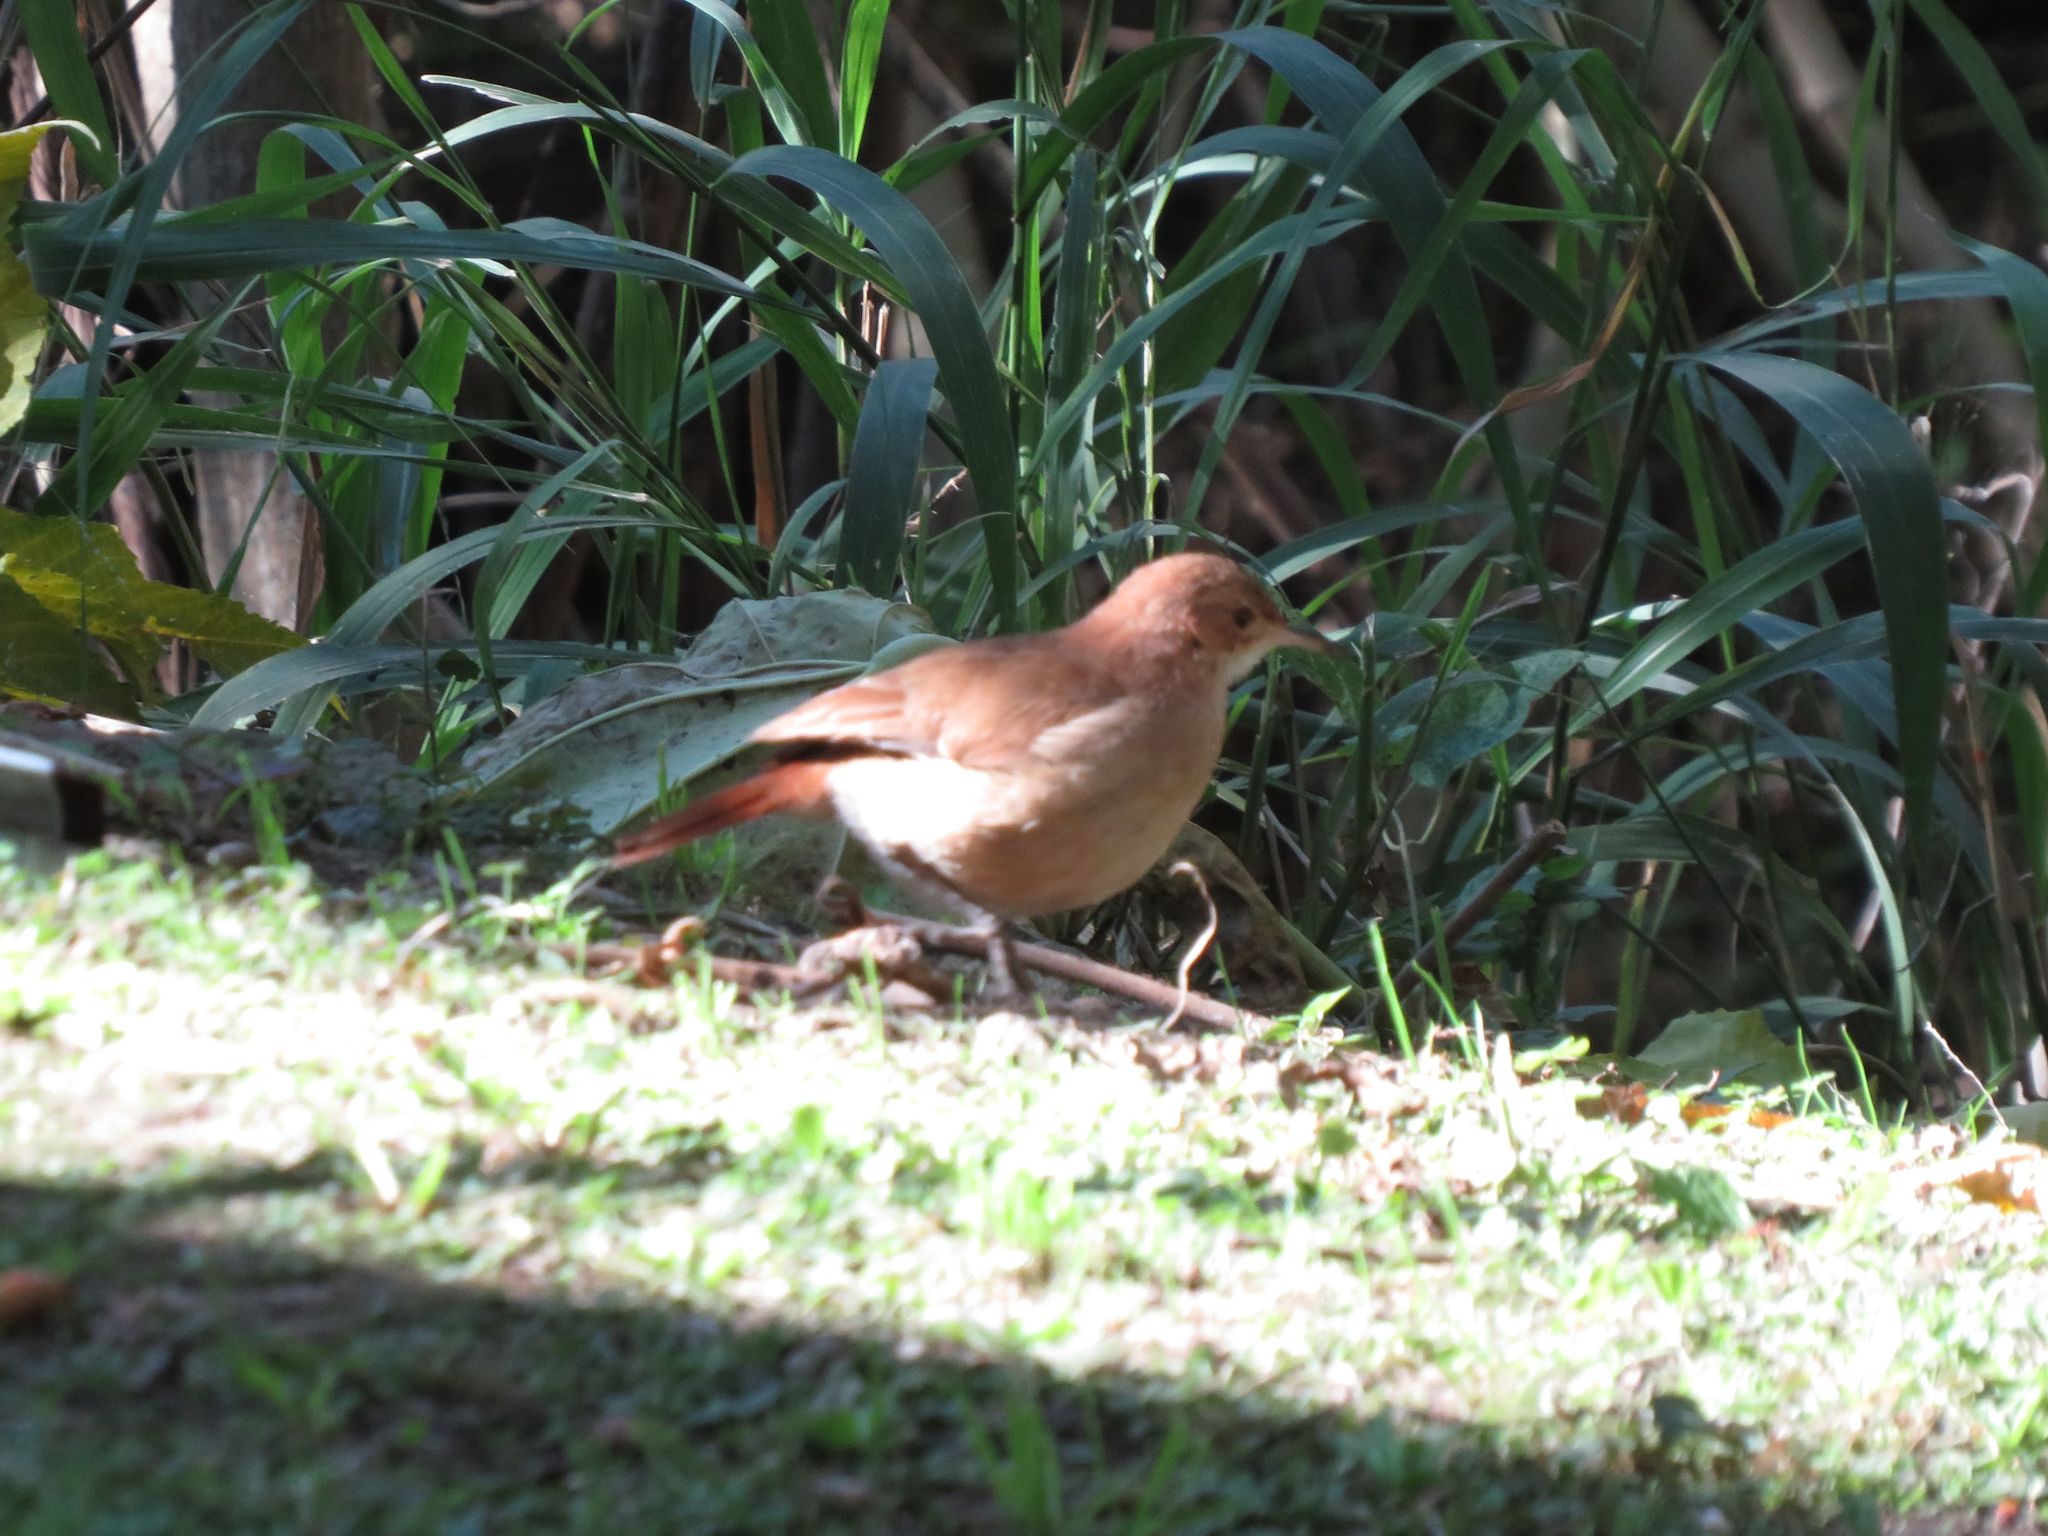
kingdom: Animalia
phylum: Chordata
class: Aves
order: Passeriformes
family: Furnariidae
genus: Furnarius
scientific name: Furnarius rufus
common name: Rufous hornero
